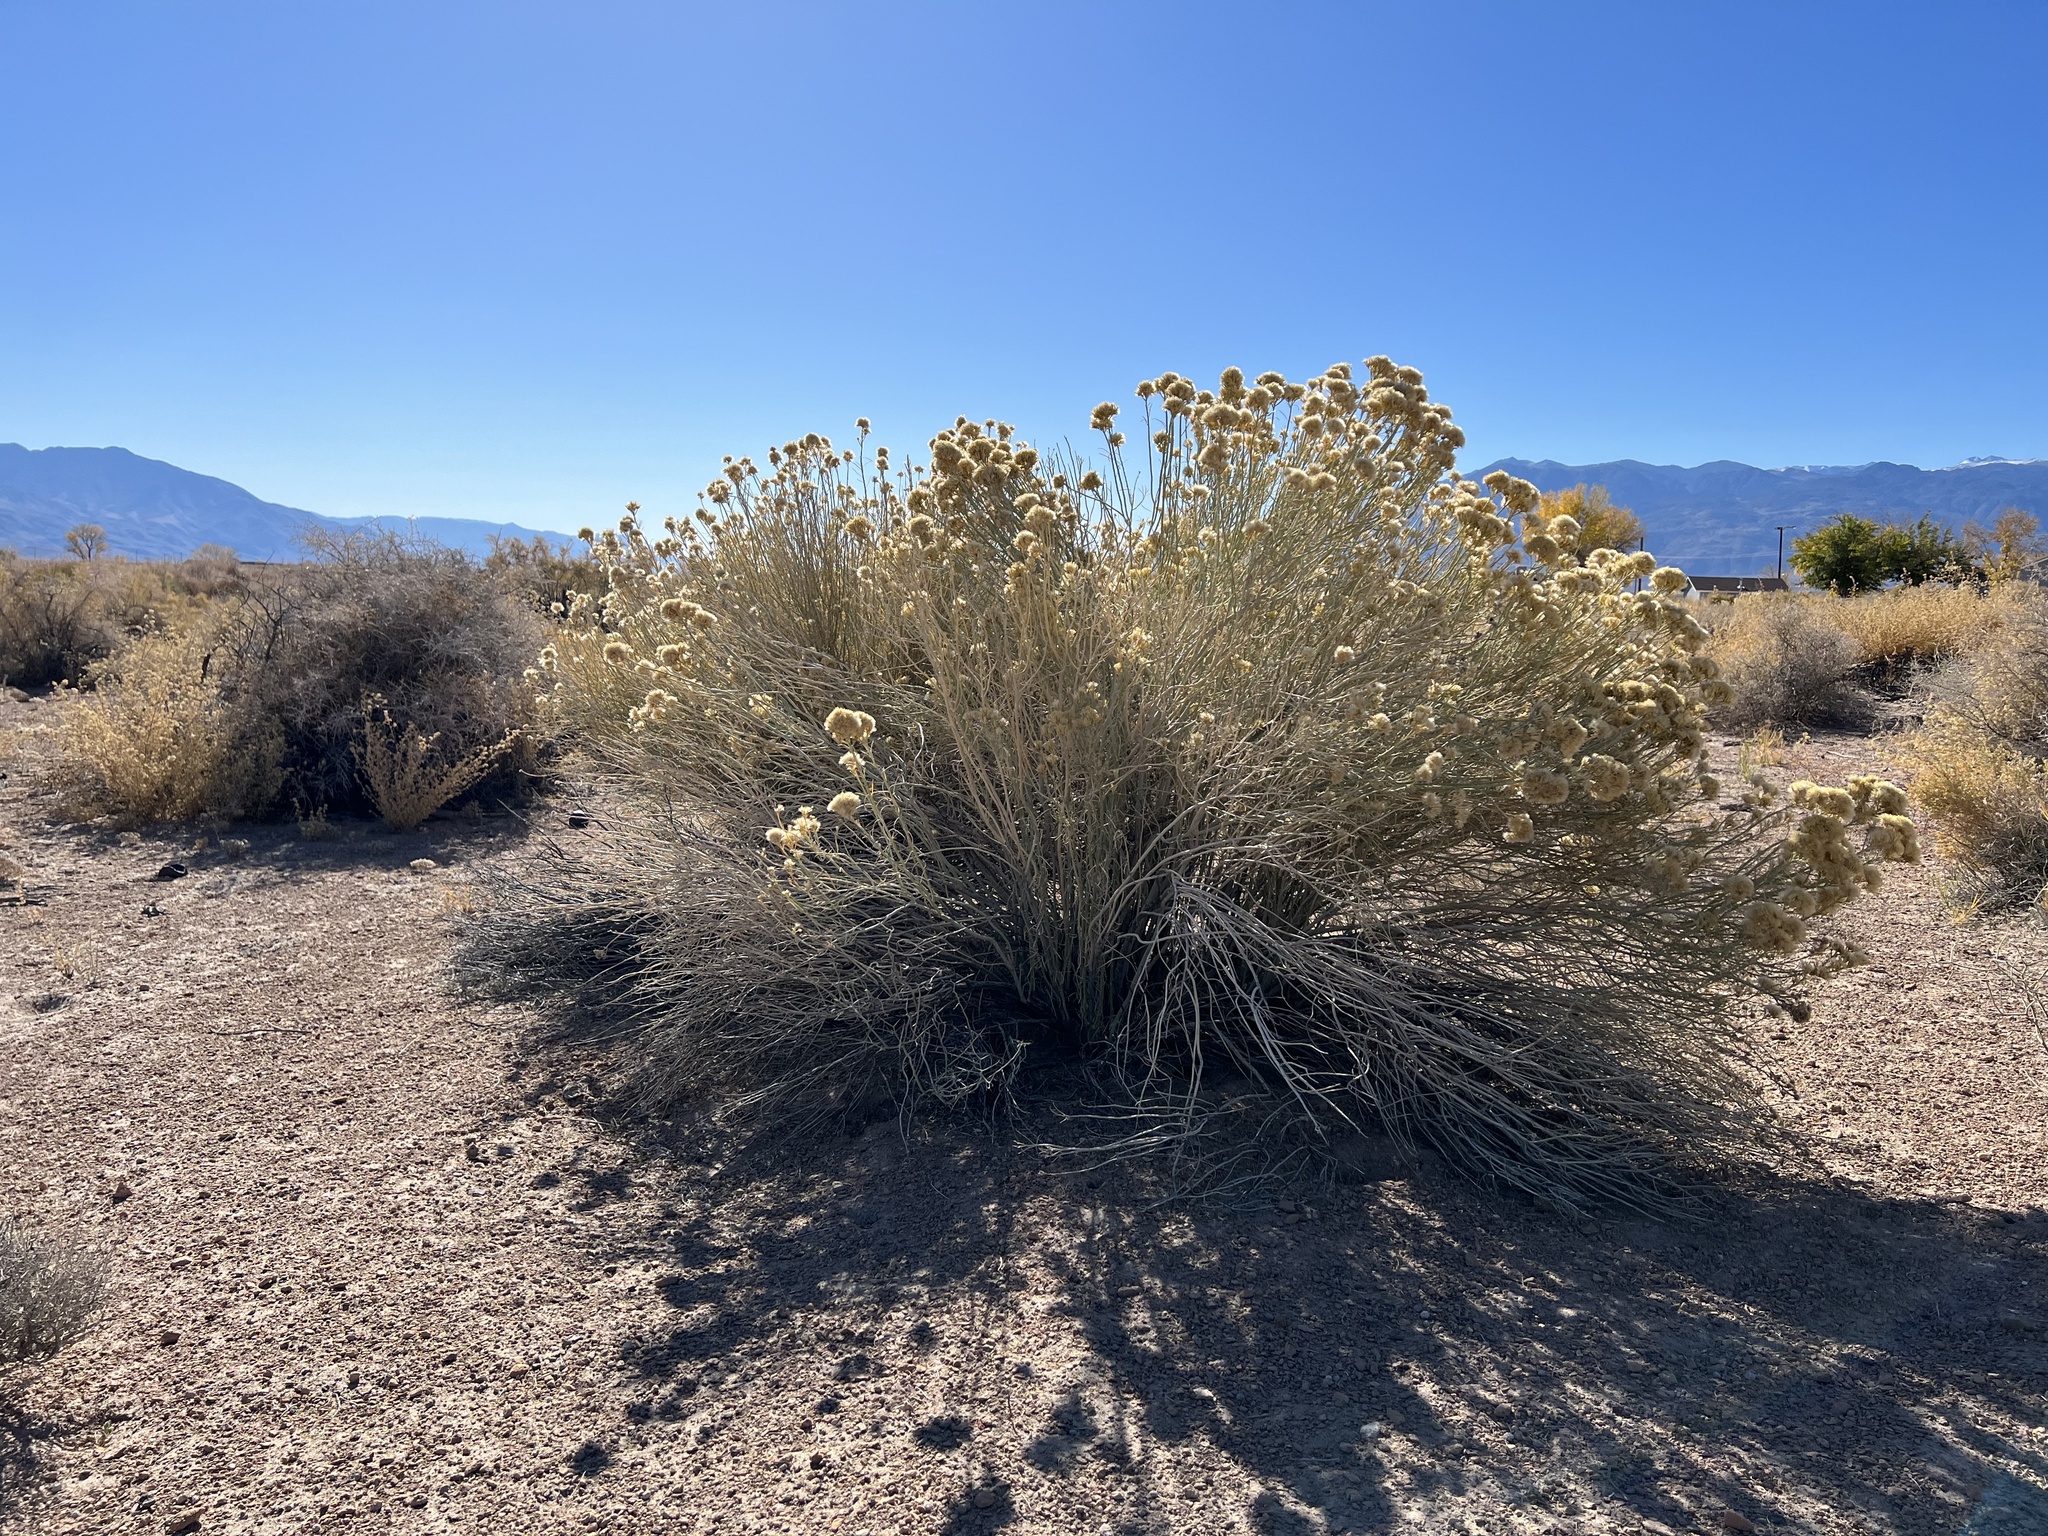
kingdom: Plantae
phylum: Tracheophyta
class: Magnoliopsida
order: Asterales
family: Asteraceae
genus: Ericameria
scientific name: Ericameria nauseosa
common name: Rubber rabbitbrush
